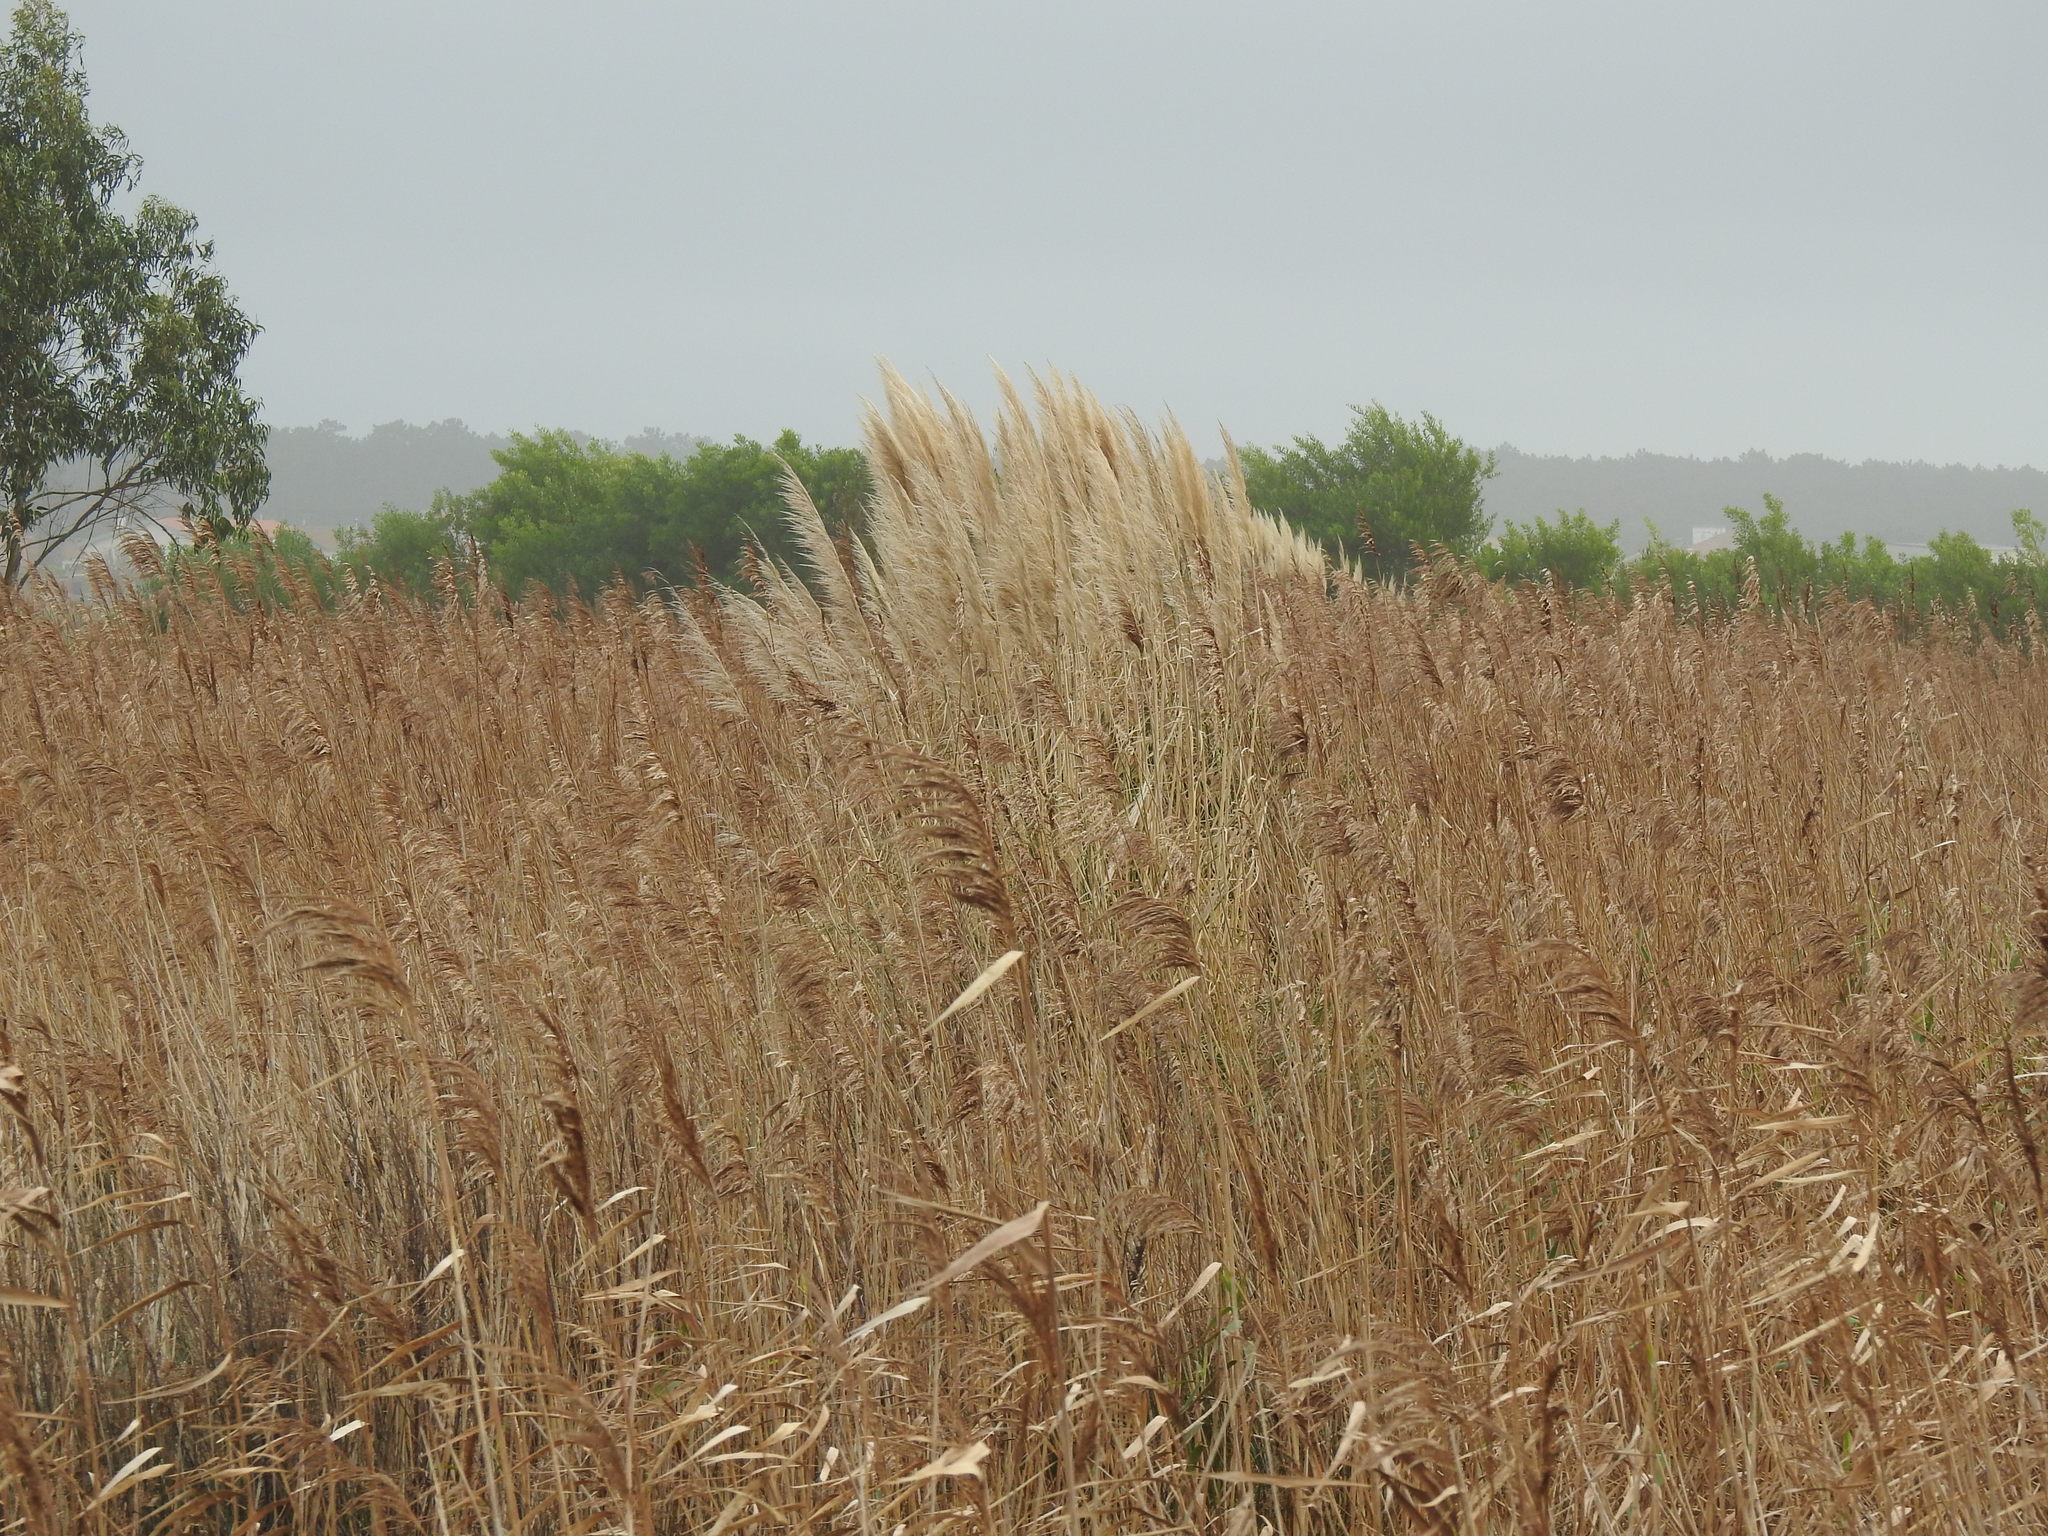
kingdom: Plantae
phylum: Tracheophyta
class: Liliopsida
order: Poales
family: Poaceae
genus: Phragmites
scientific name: Phragmites australis
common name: Common reed
